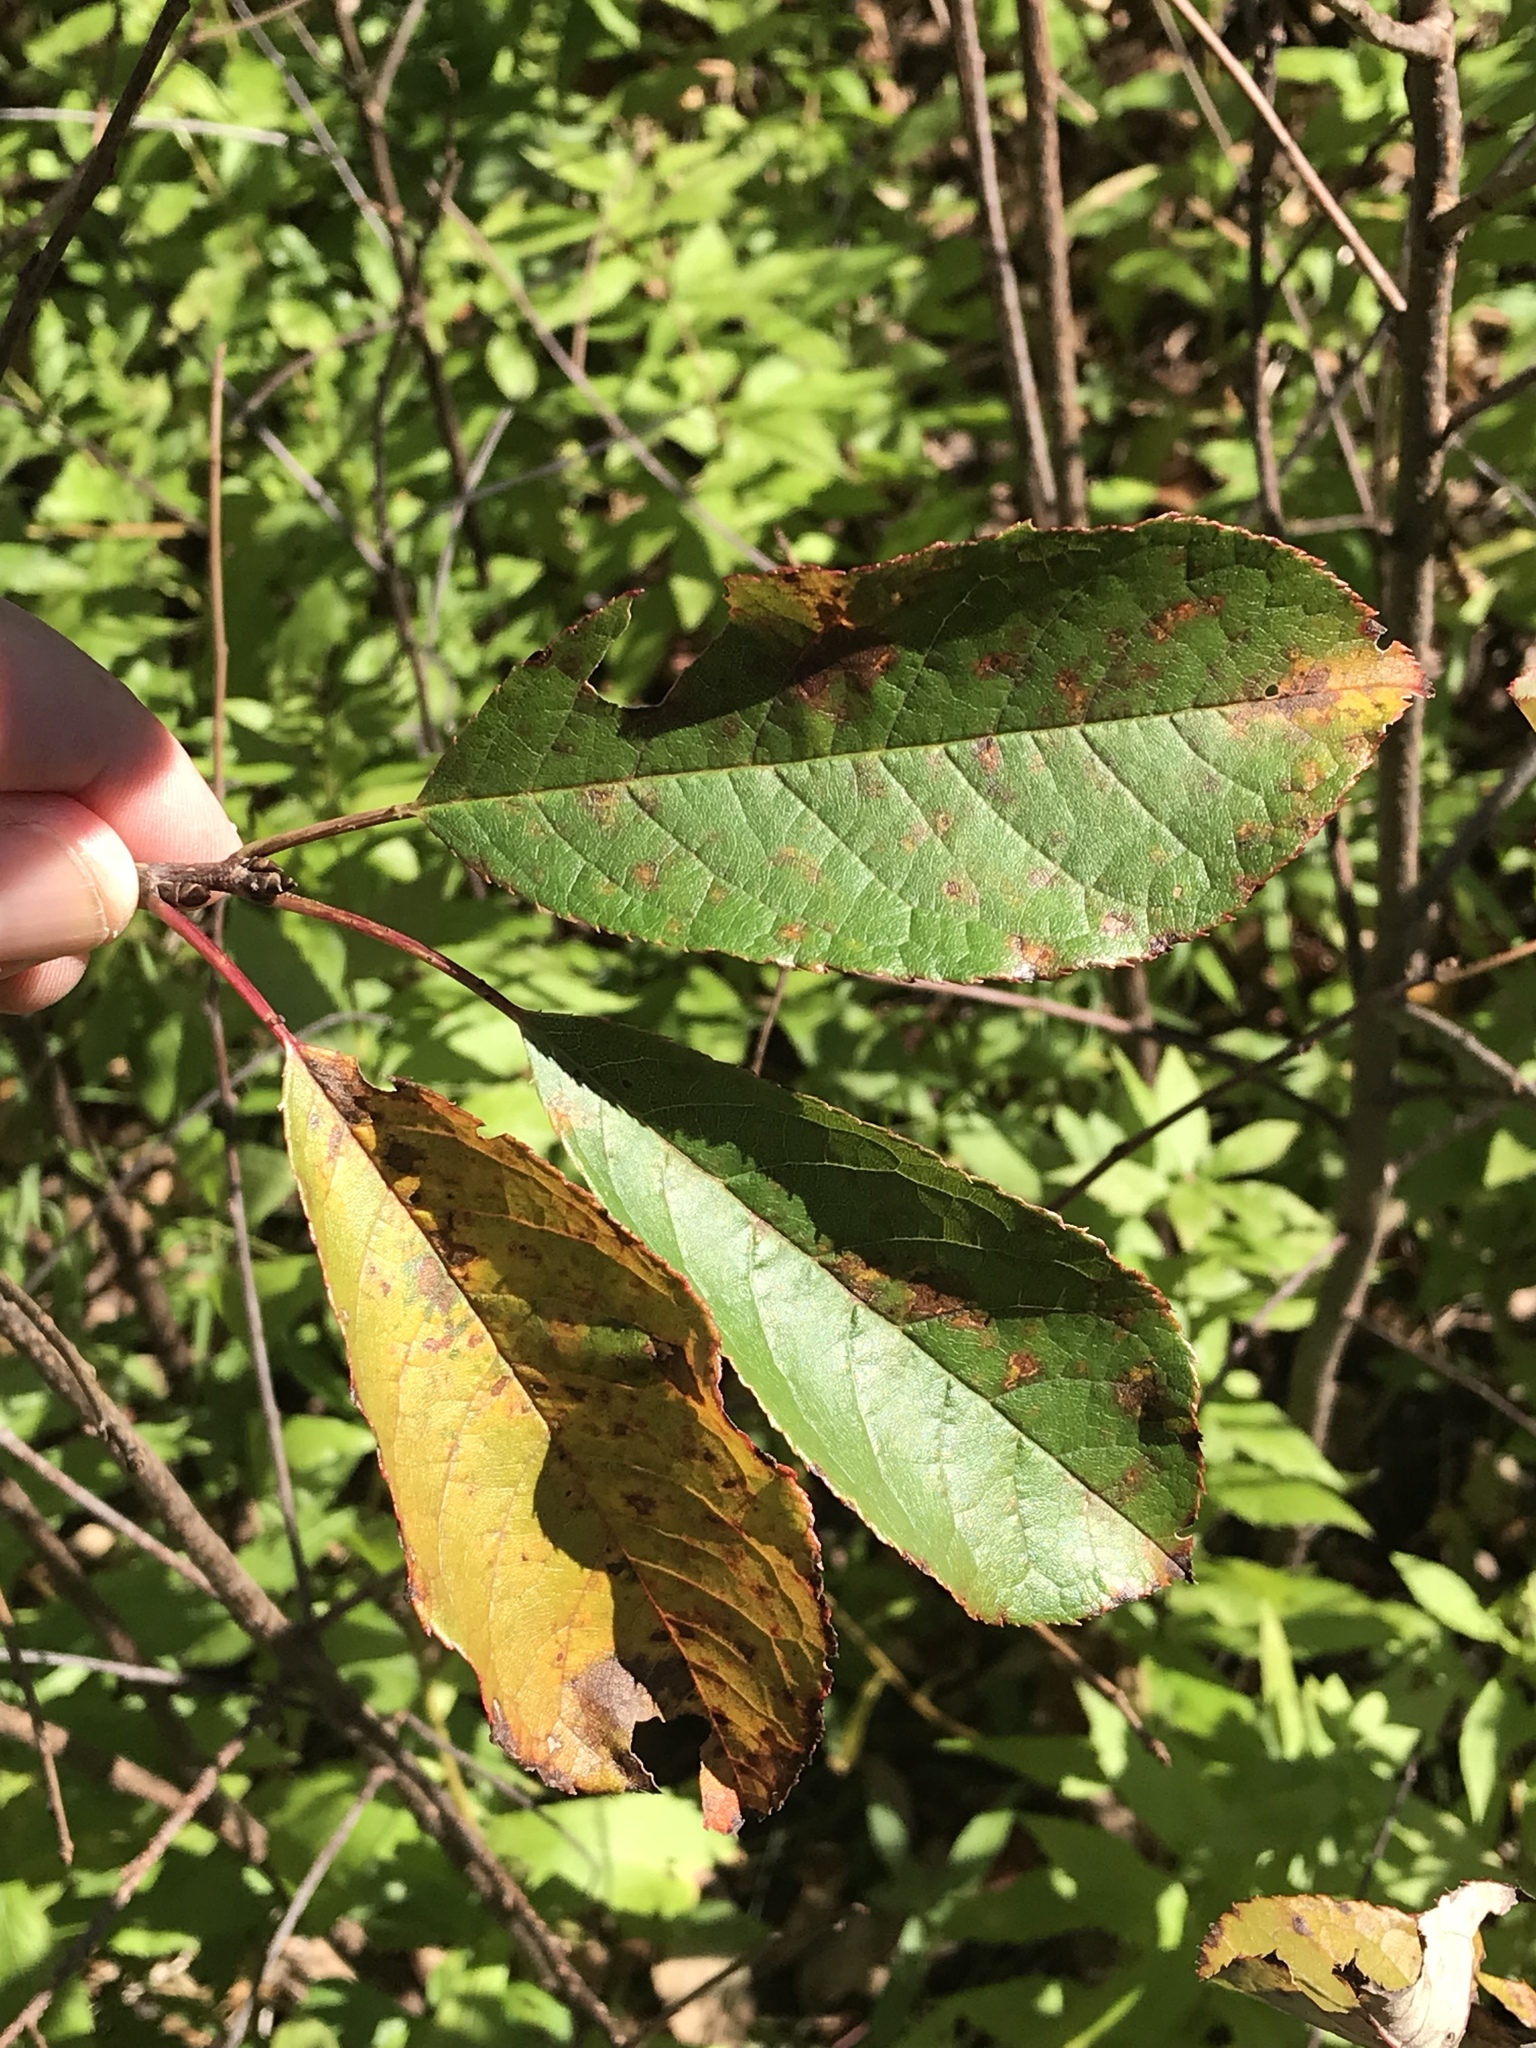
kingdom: Plantae
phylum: Tracheophyta
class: Magnoliopsida
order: Rosales
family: Rosaceae
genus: Prunus
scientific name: Prunus virginiana
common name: Chokecherry
